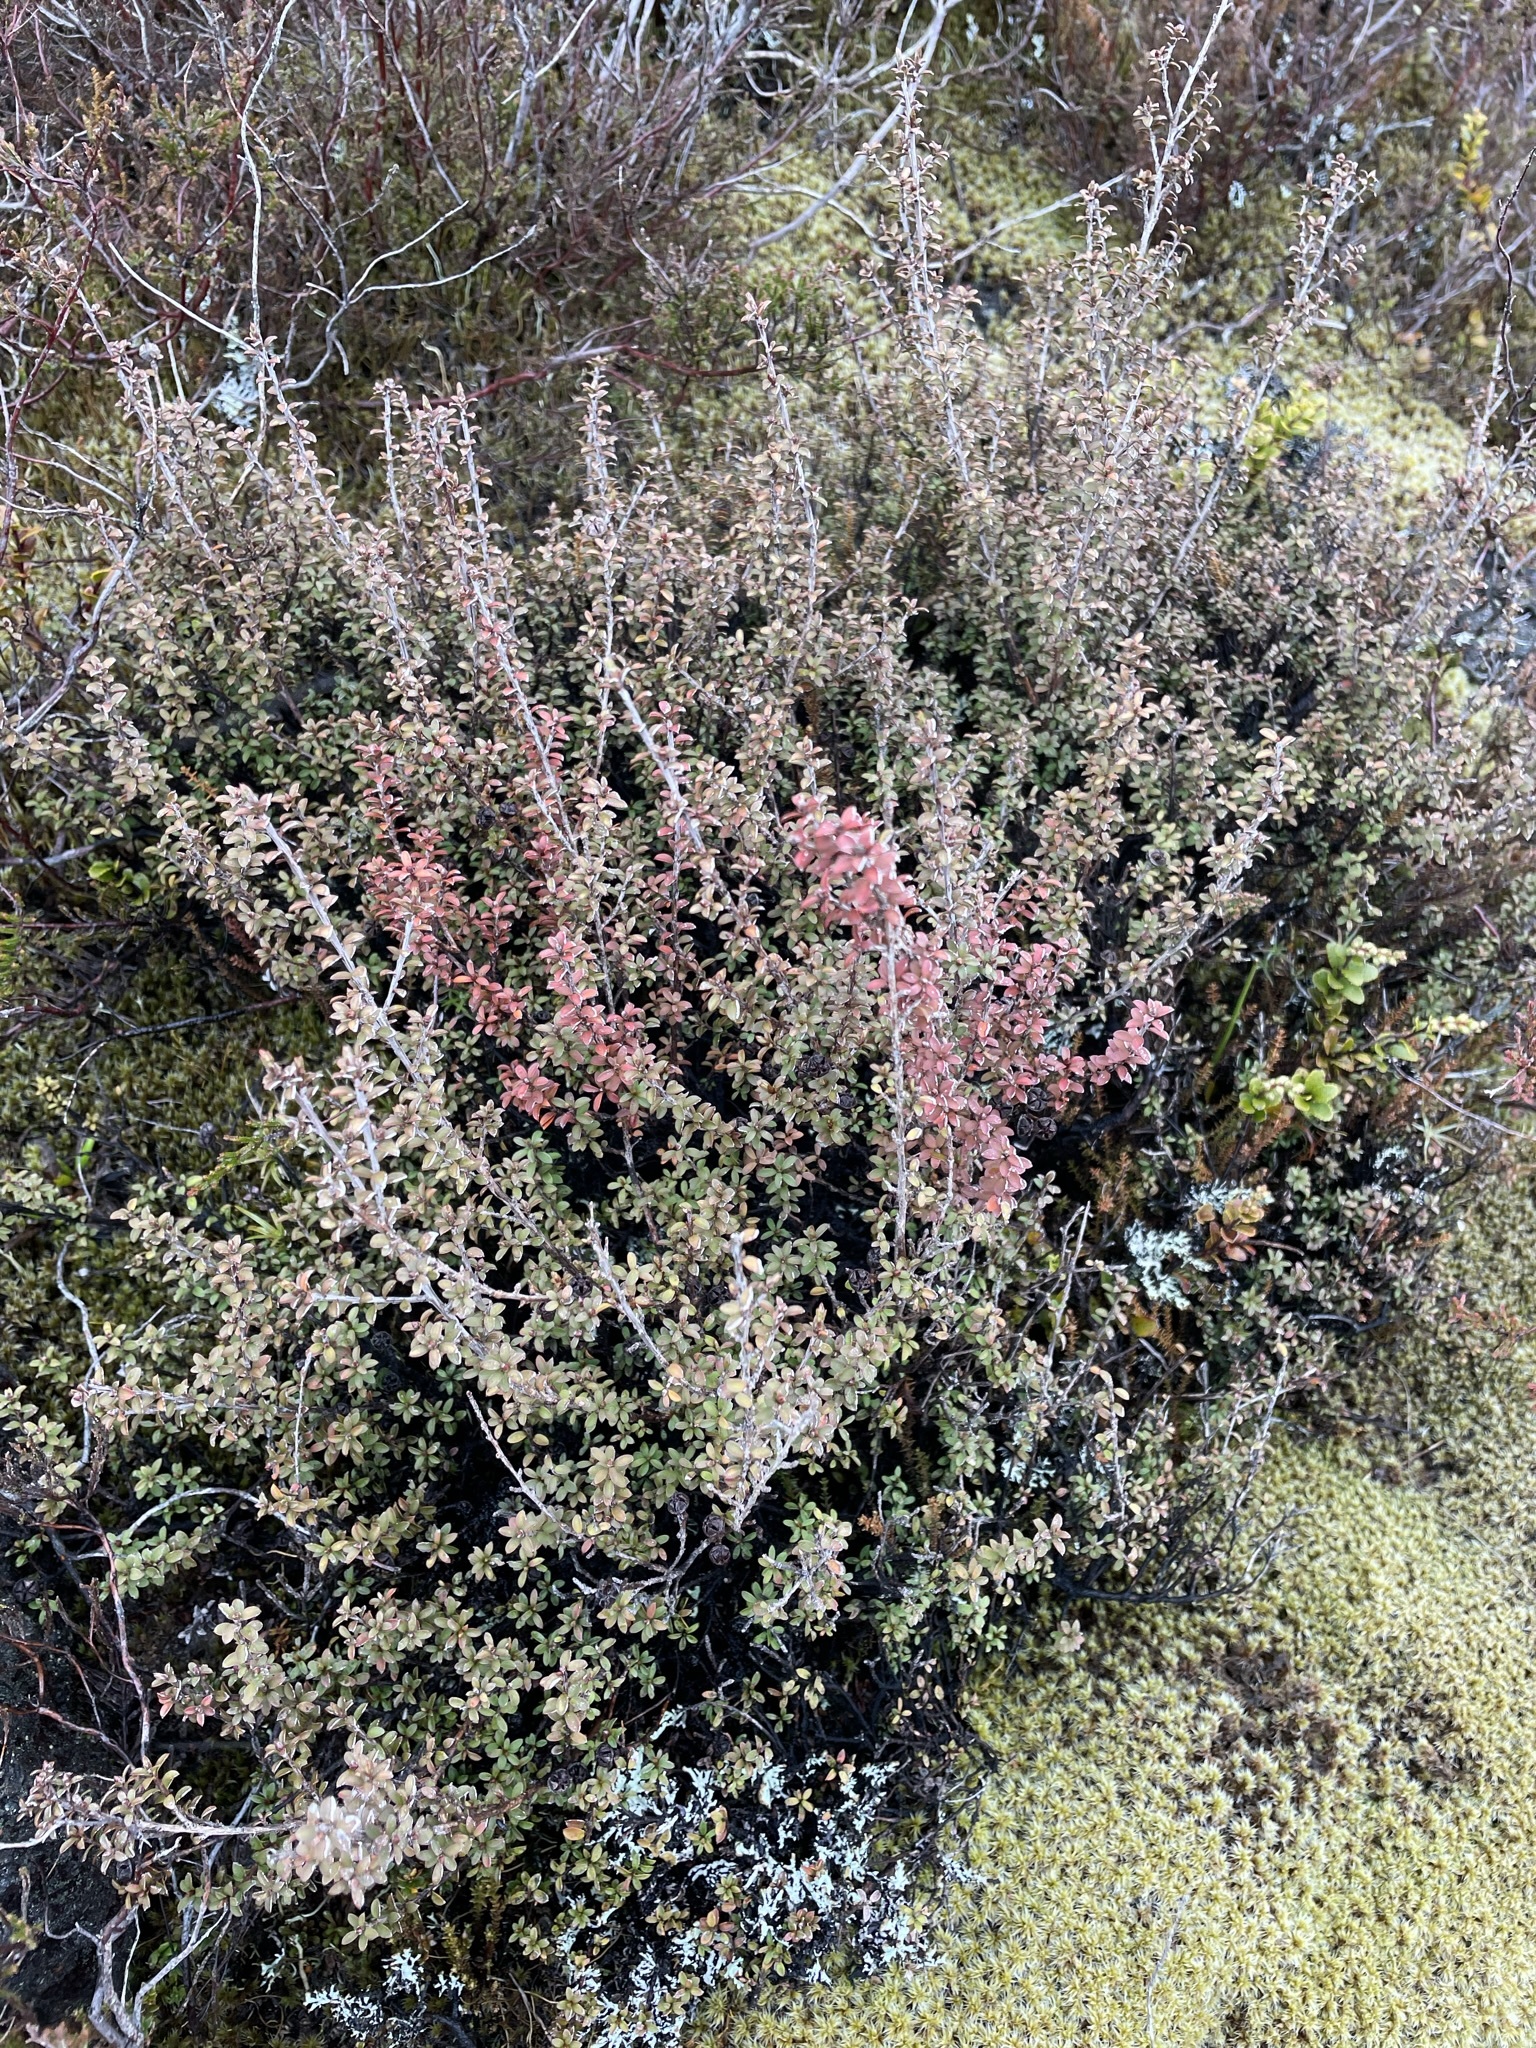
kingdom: Plantae
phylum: Tracheophyta
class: Magnoliopsida
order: Myrtales
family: Myrtaceae
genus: Leptospermum
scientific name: Leptospermum scoparium
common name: Broom tea-tree
